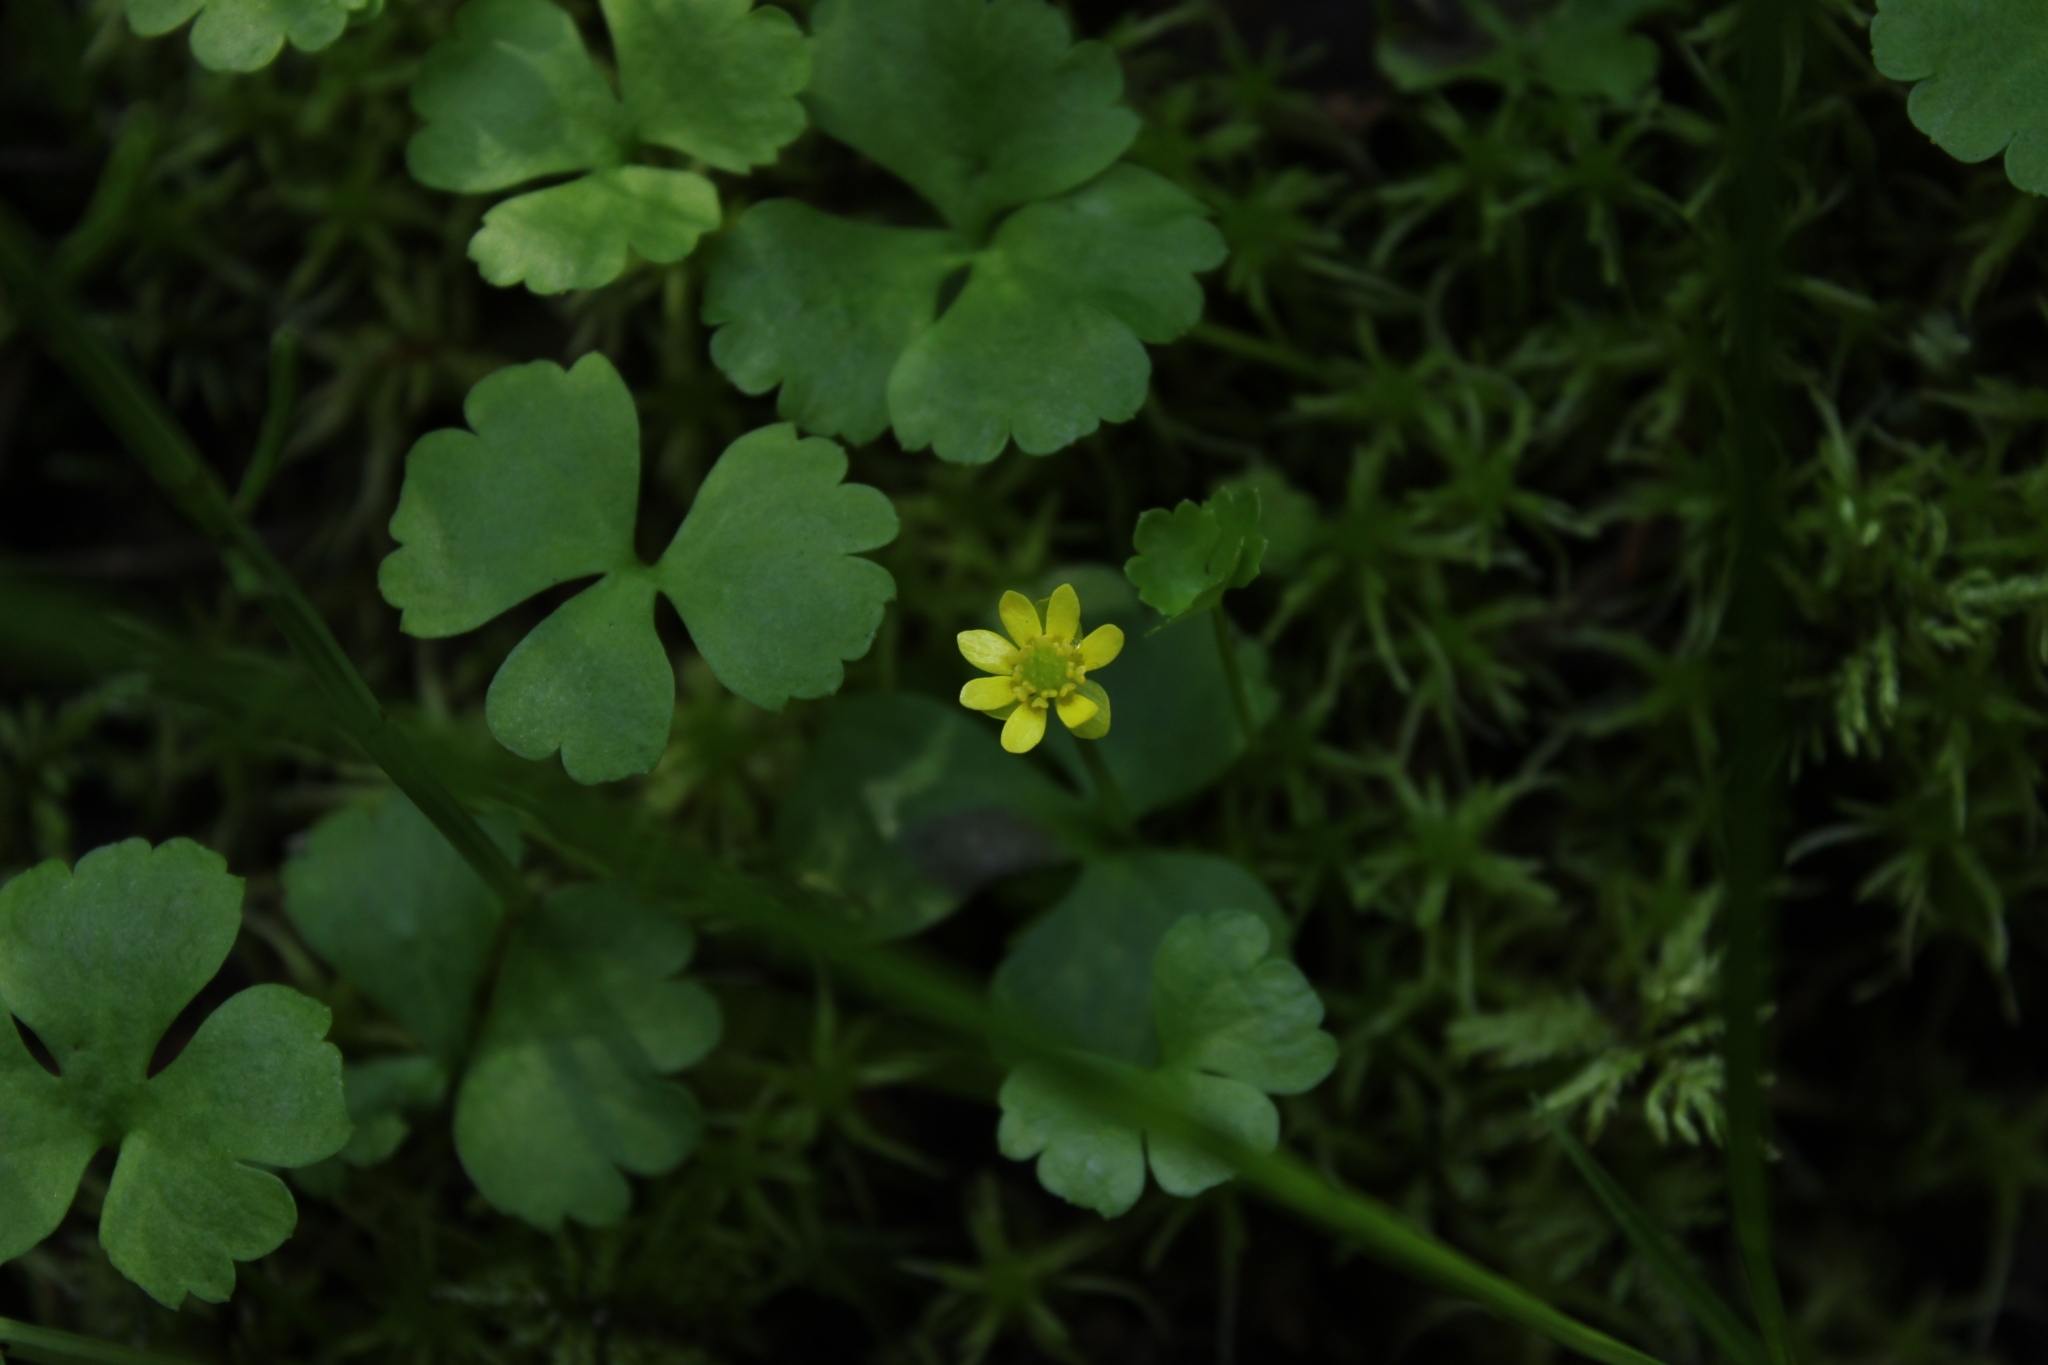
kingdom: Plantae
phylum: Tracheophyta
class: Magnoliopsida
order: Ranunculales
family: Ranunculaceae
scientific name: Ranunculaceae
